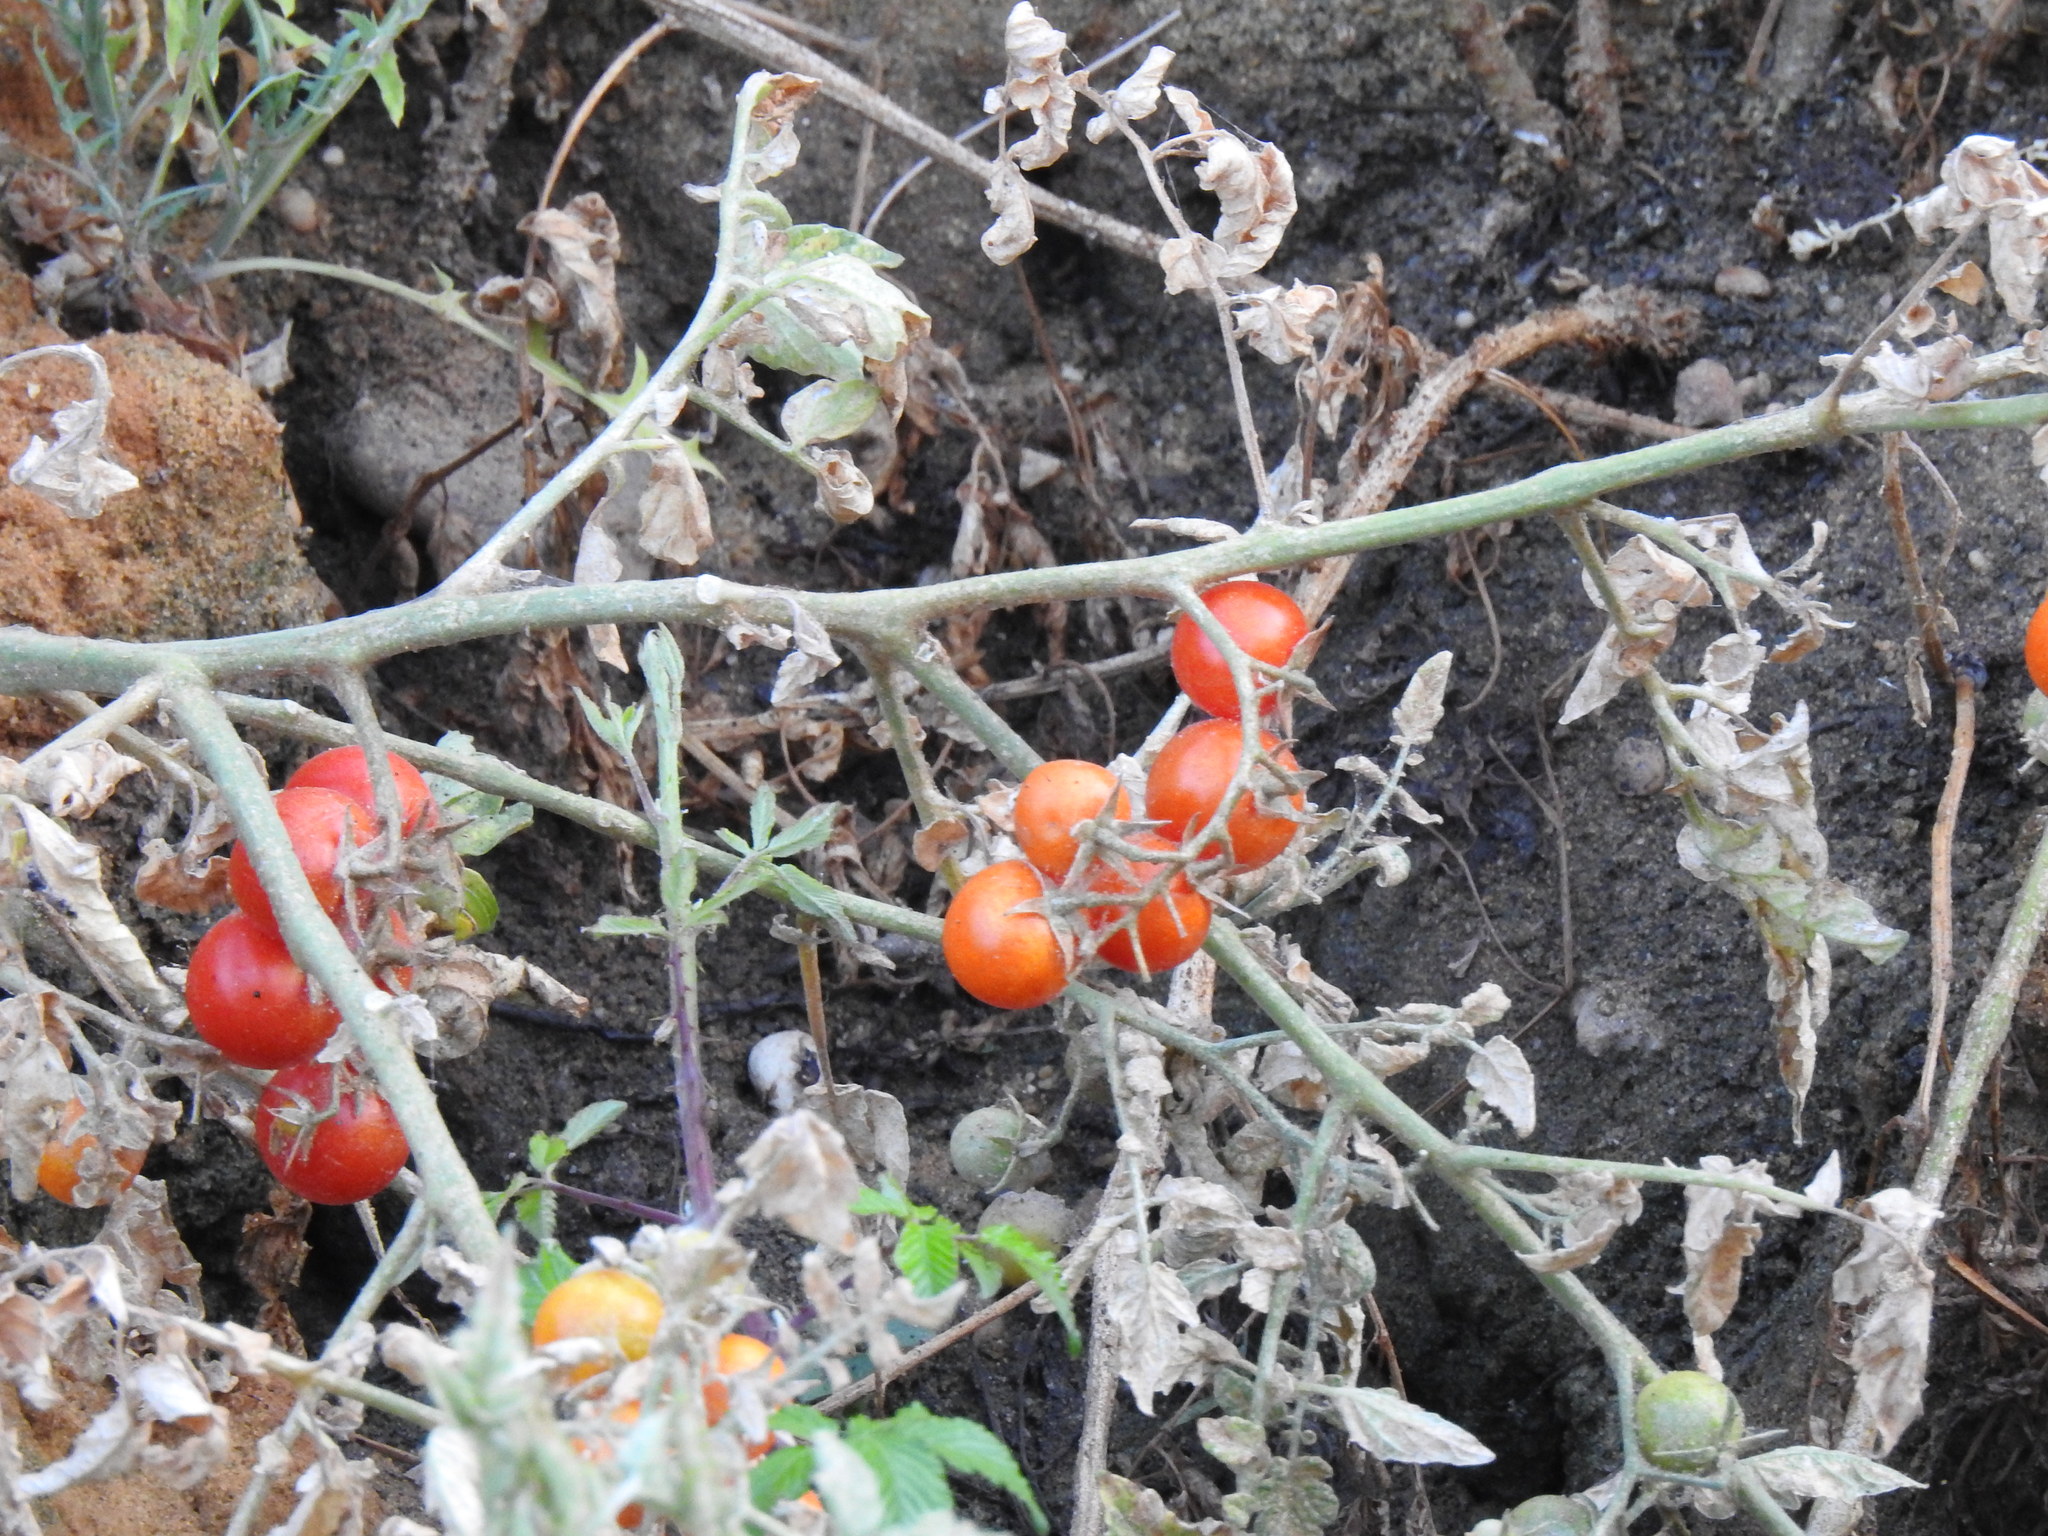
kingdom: Plantae
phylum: Tracheophyta
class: Magnoliopsida
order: Solanales
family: Solanaceae
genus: Solanum
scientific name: Solanum lycopersicum
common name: Garden tomato
